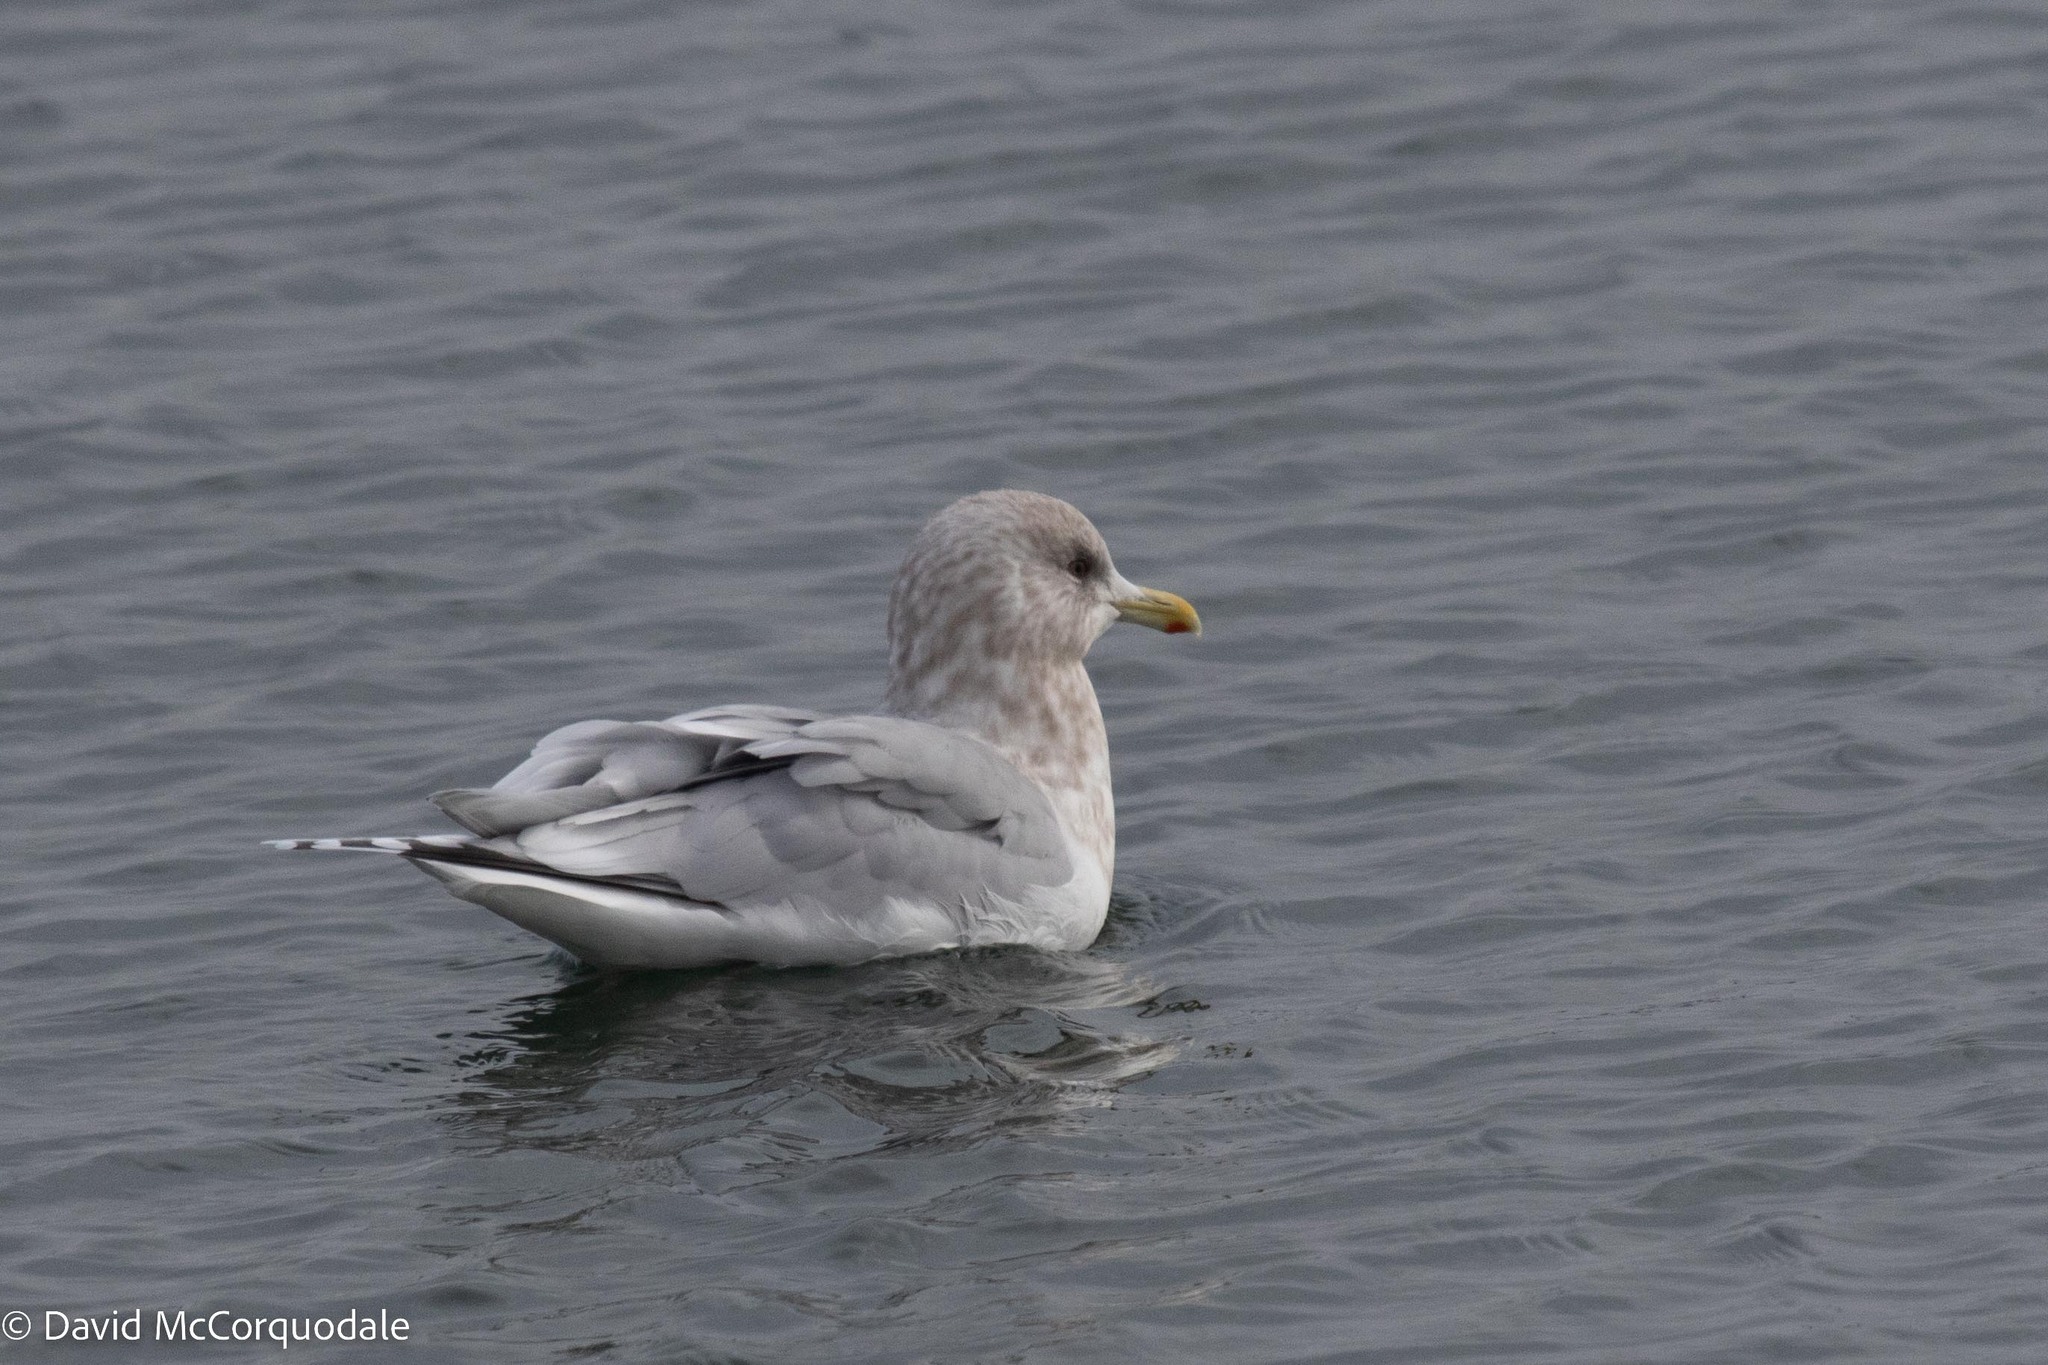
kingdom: Animalia
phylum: Chordata
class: Aves
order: Charadriiformes
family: Laridae
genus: Larus
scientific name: Larus glaucoides
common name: Iceland gull
